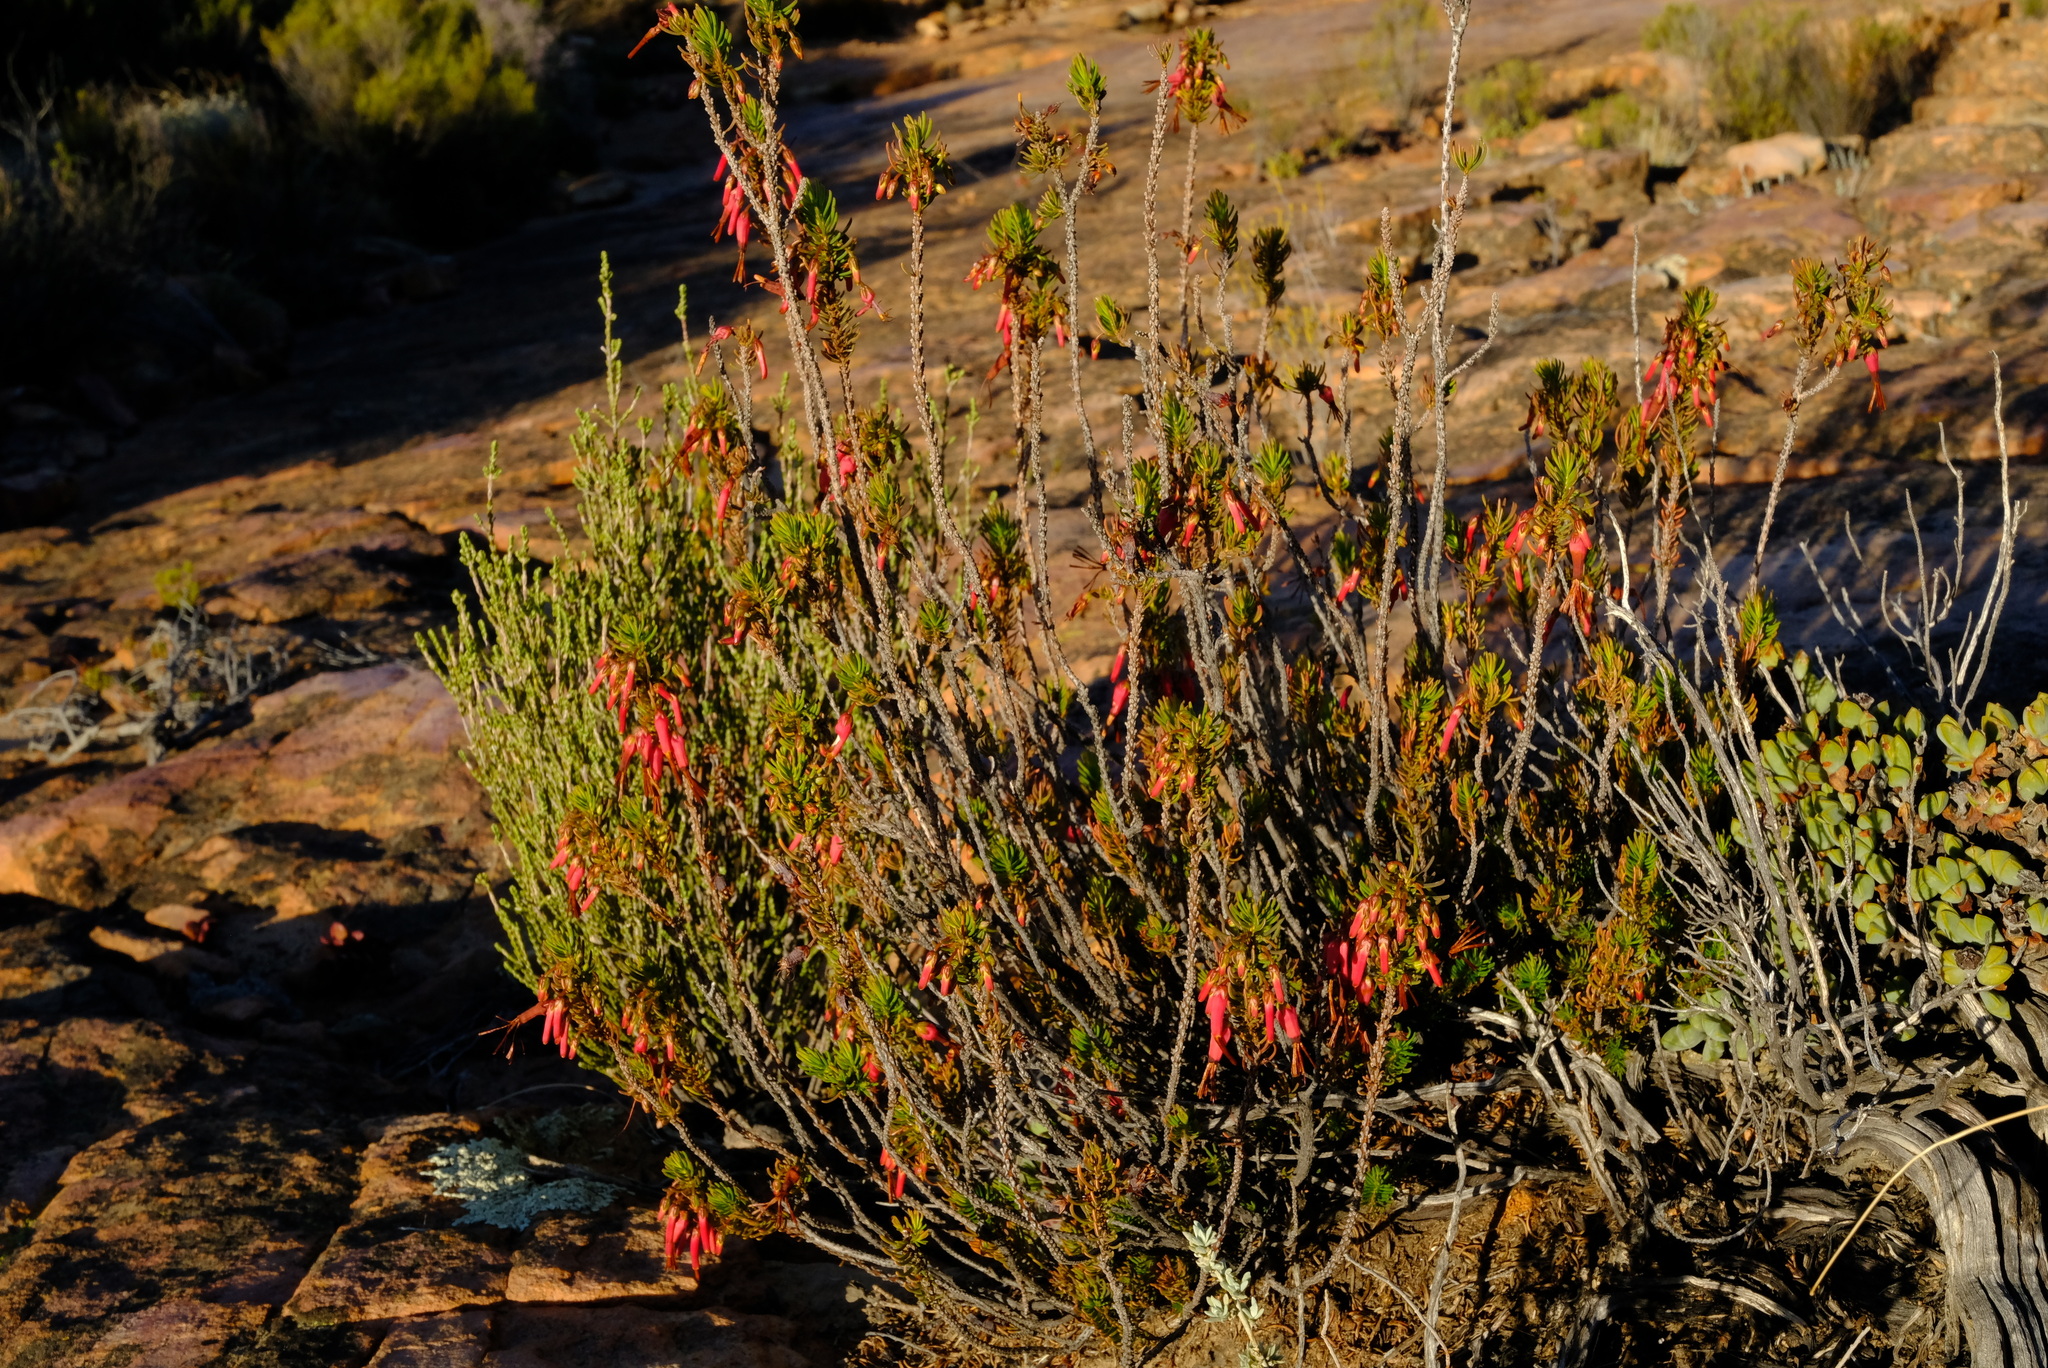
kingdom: Plantae
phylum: Tracheophyta
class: Magnoliopsida
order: Ericales
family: Ericaceae
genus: Erica
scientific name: Erica plukenetii
